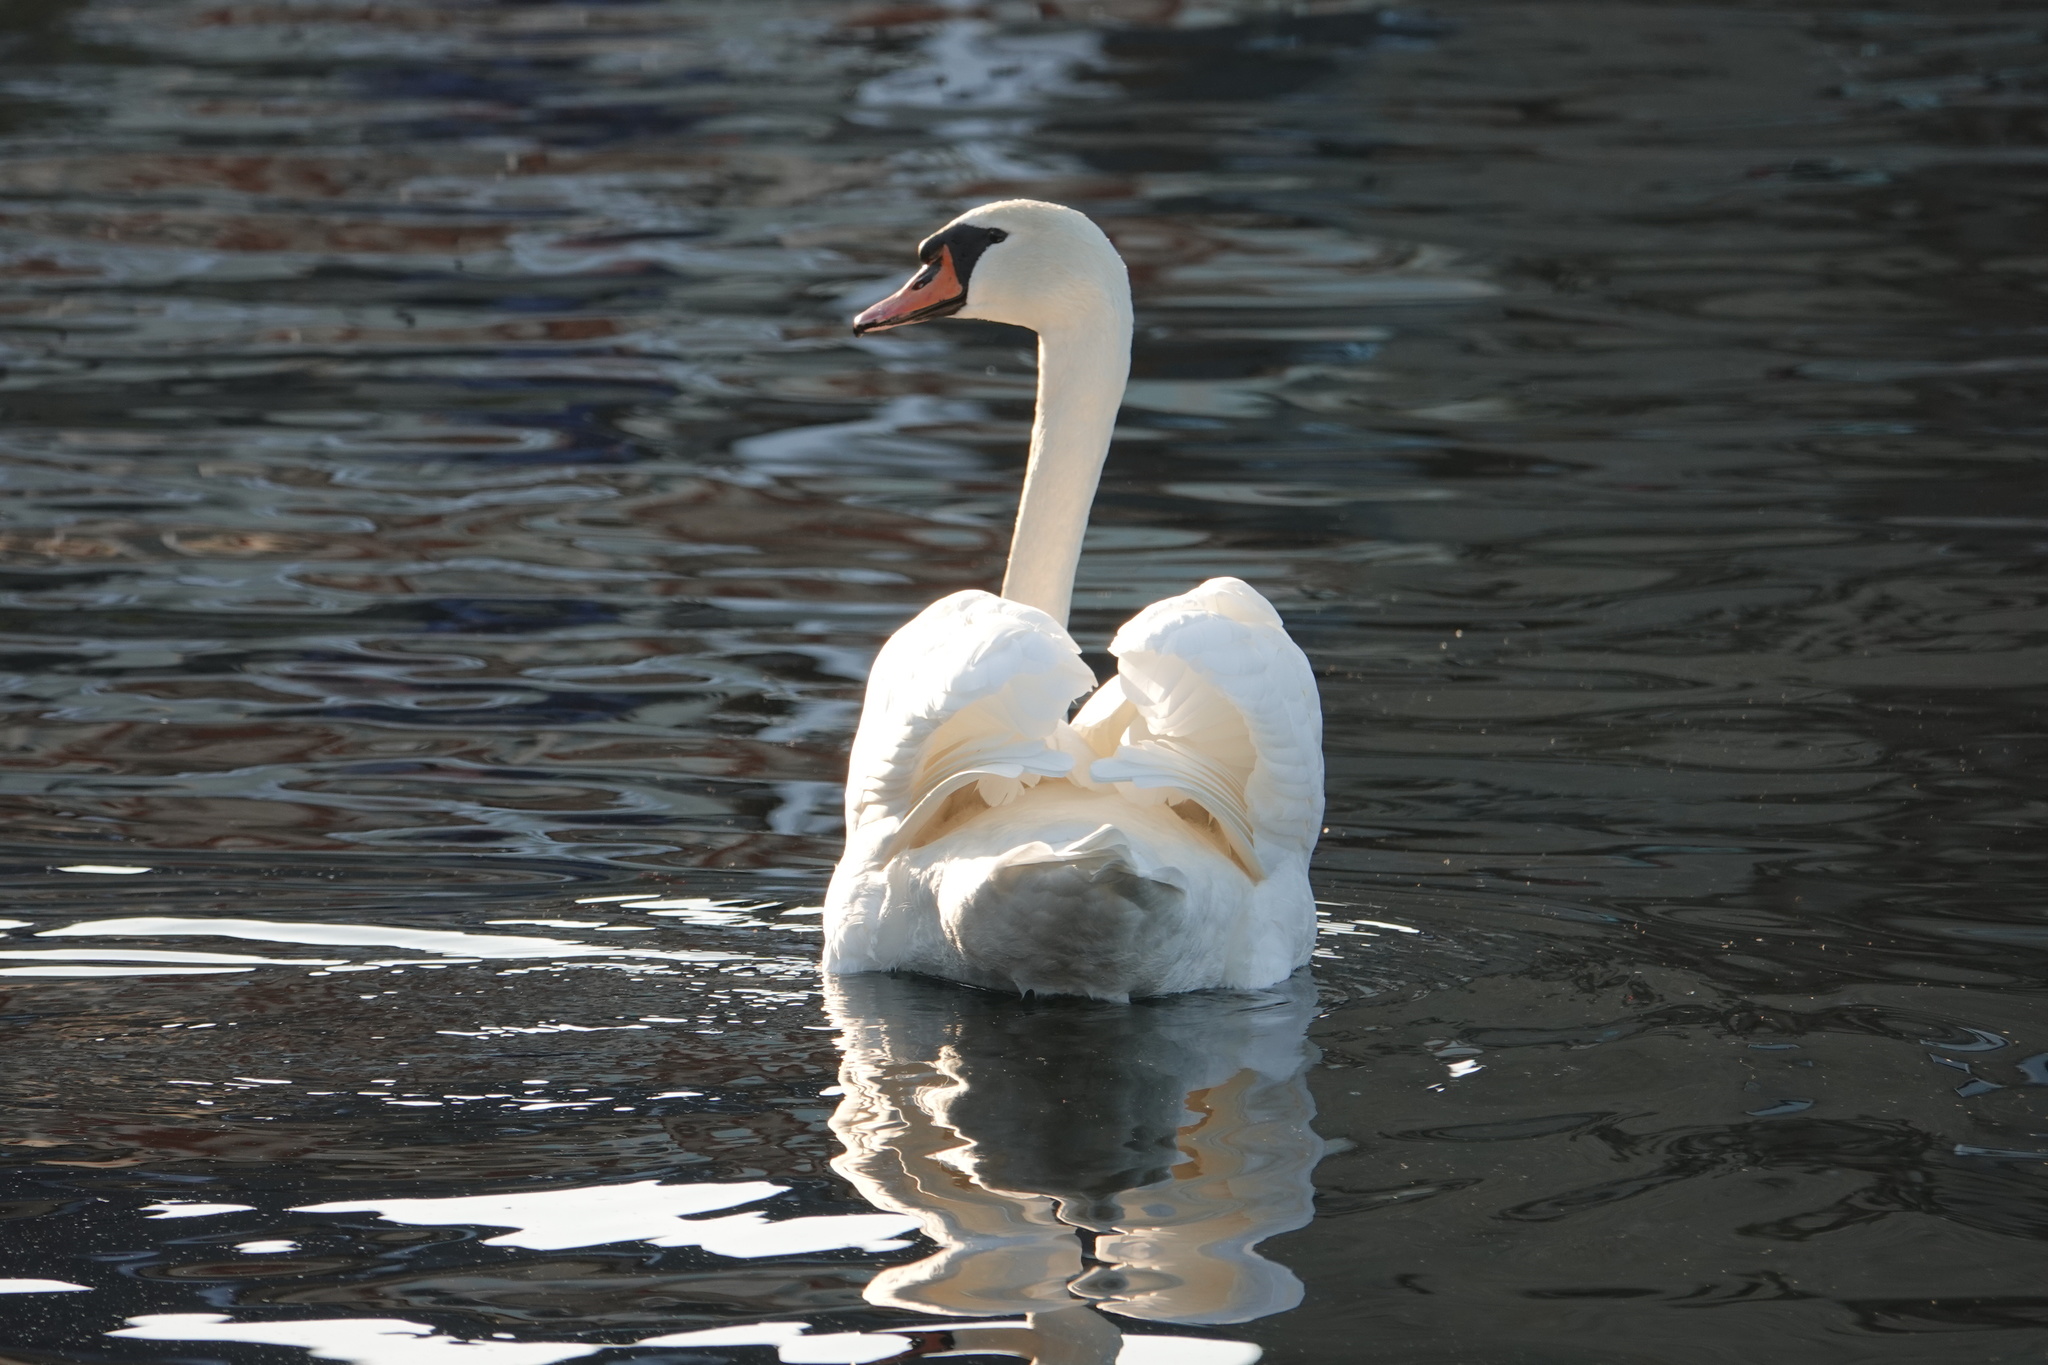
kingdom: Animalia
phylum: Chordata
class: Aves
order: Anseriformes
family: Anatidae
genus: Cygnus
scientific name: Cygnus olor
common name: Mute swan
